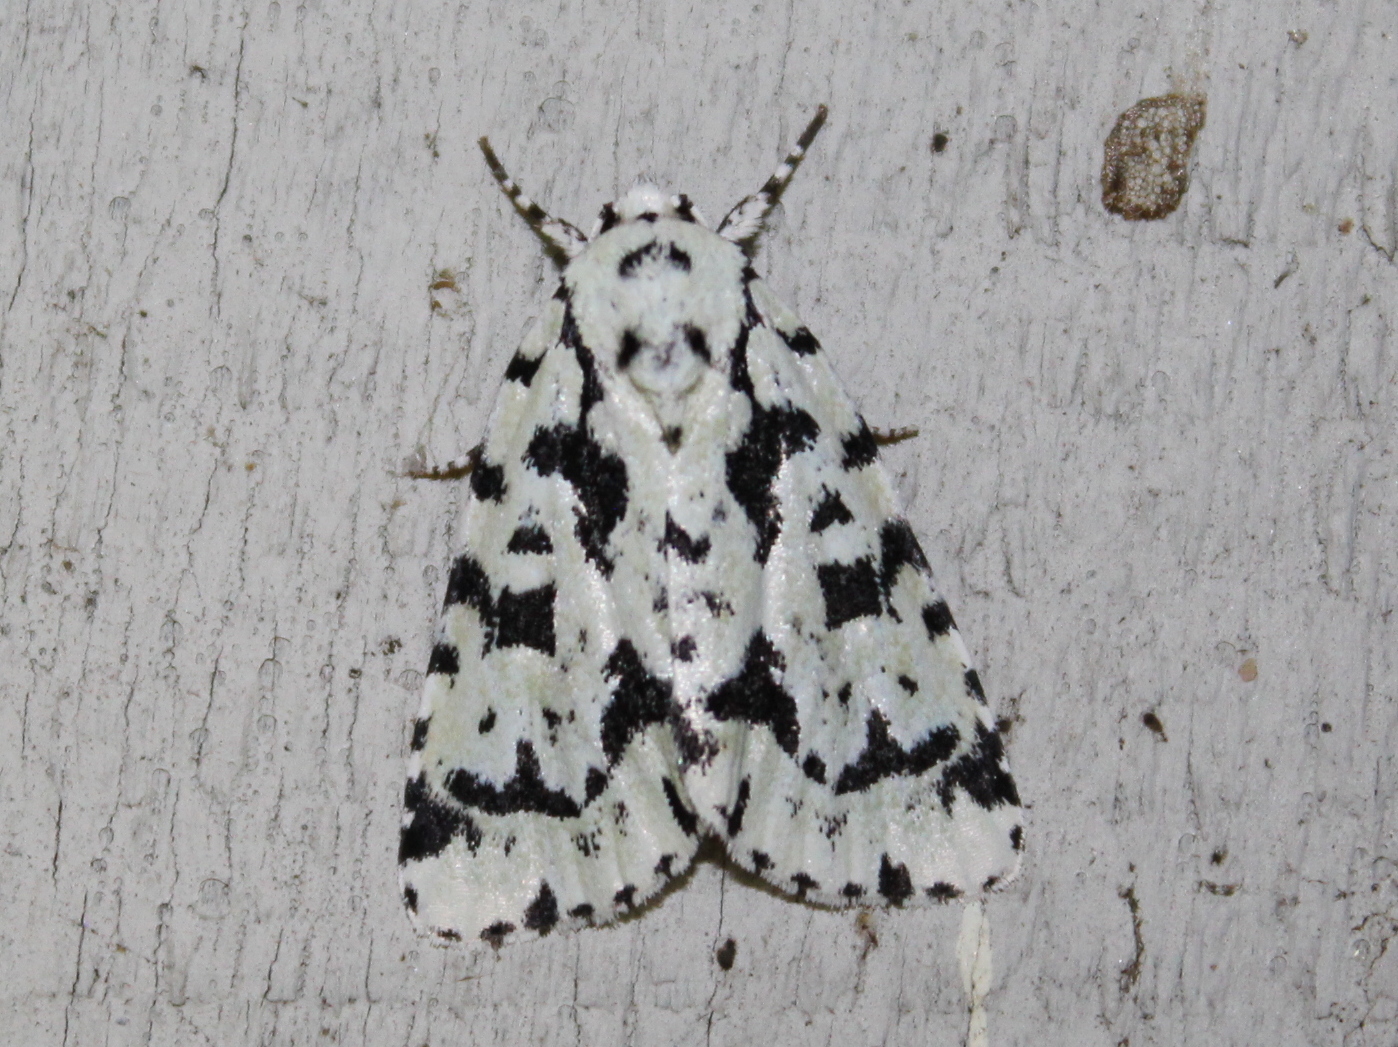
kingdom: Animalia
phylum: Arthropoda
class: Insecta
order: Lepidoptera
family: Noctuidae
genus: Acronicta
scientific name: Acronicta fallax
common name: Green marvel
